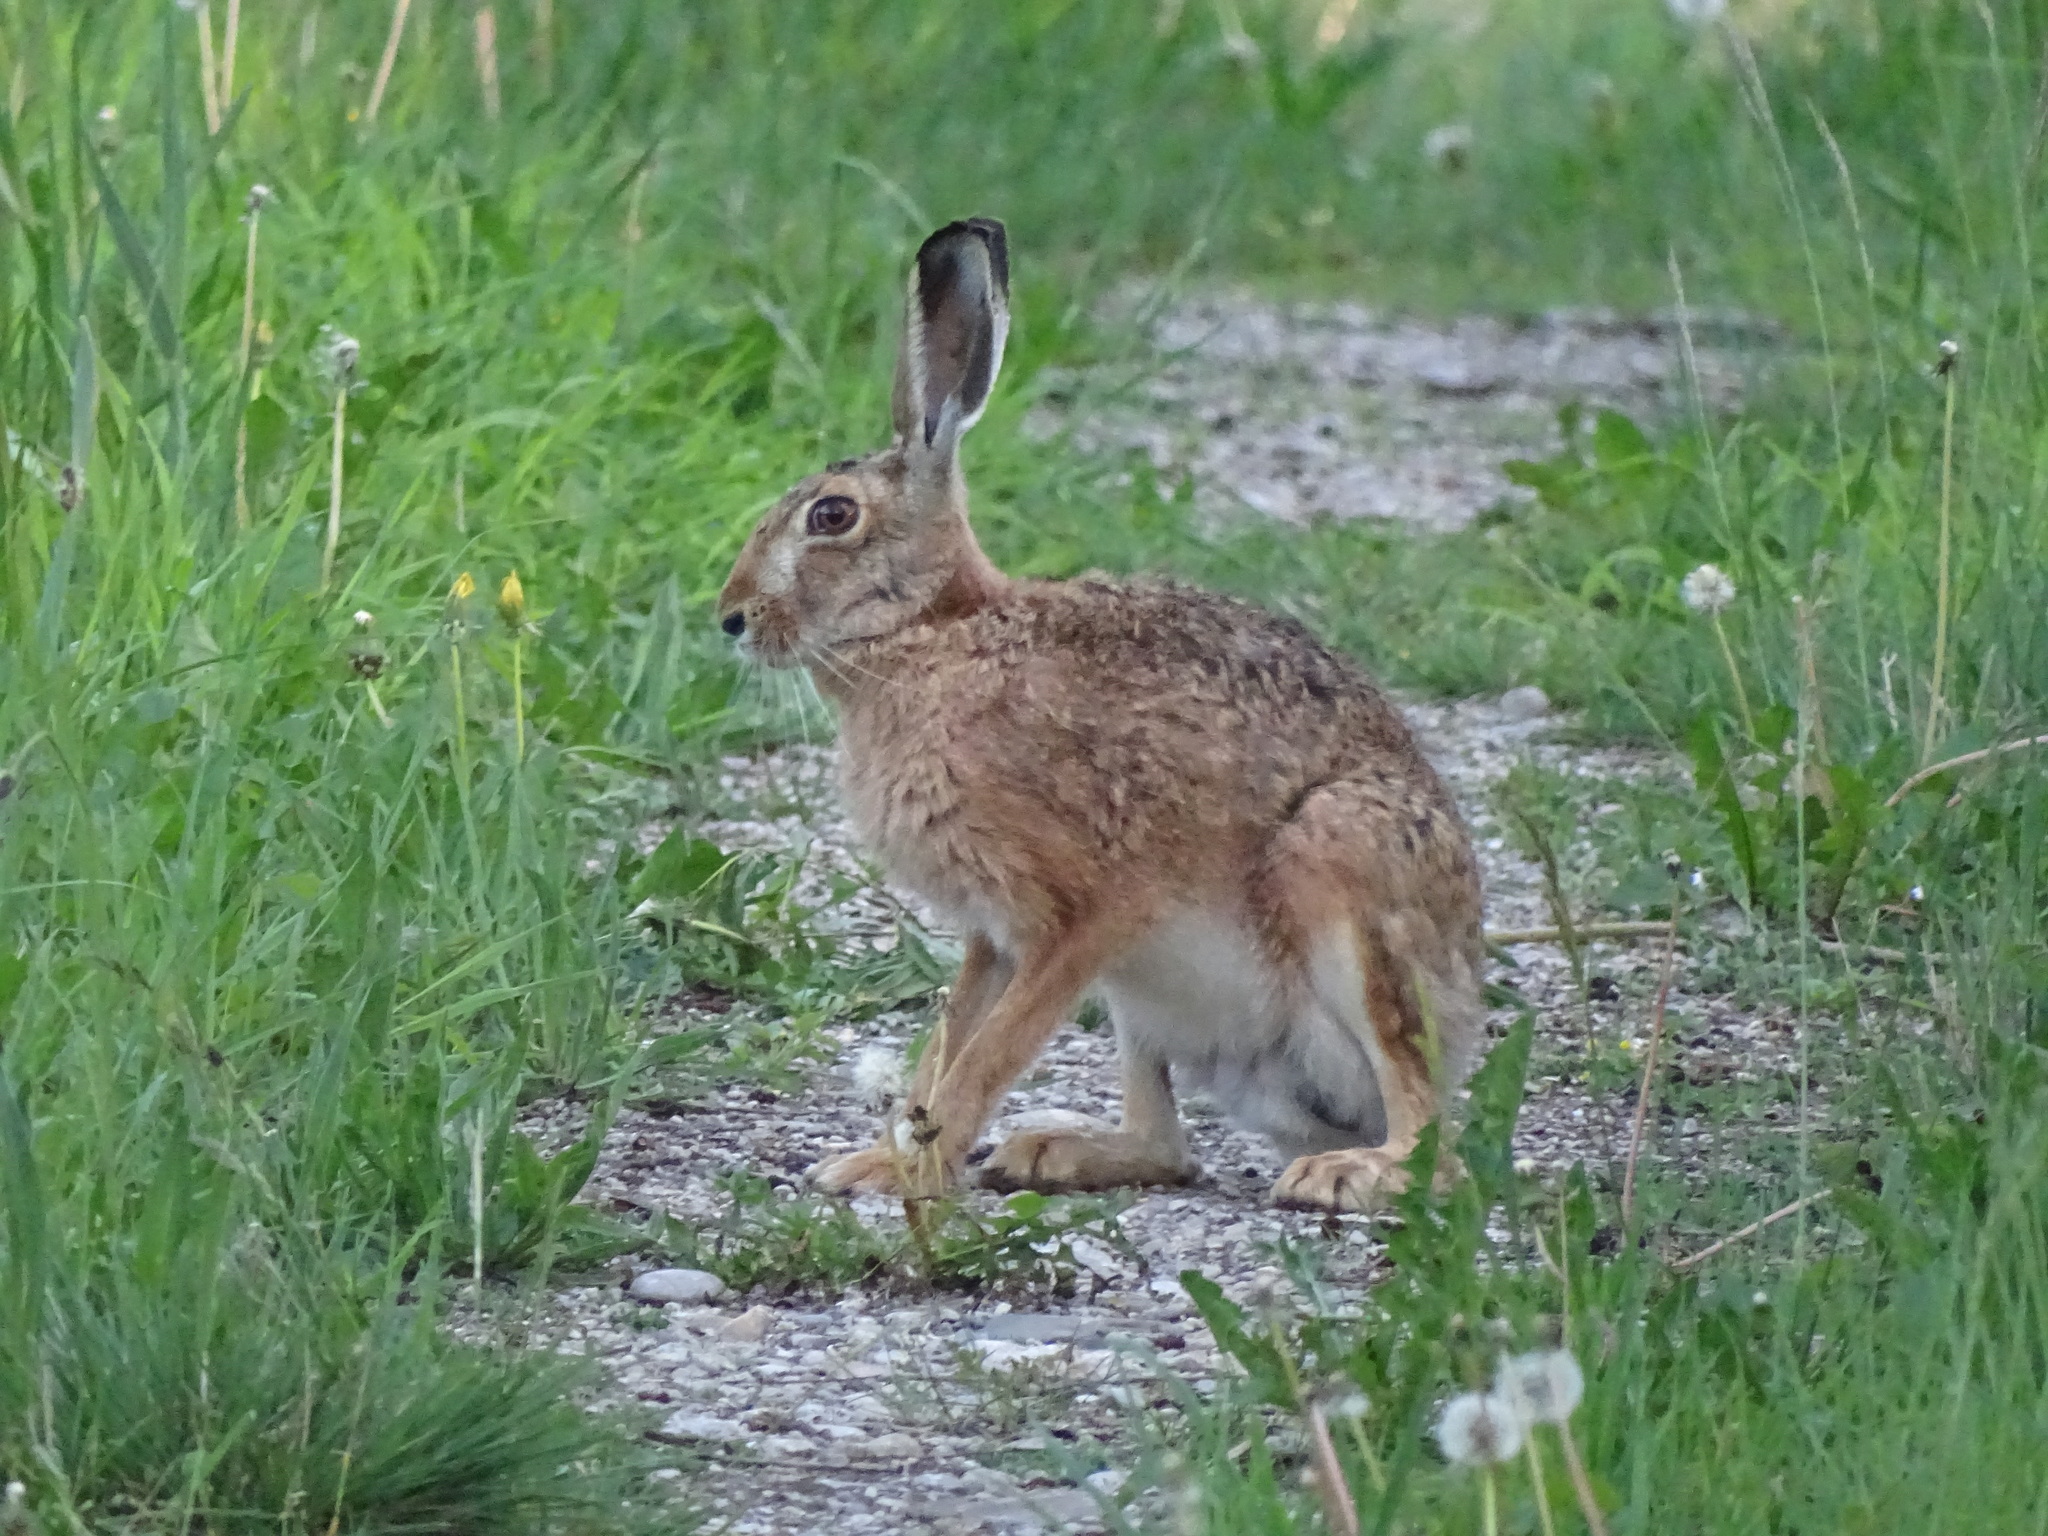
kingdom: Animalia
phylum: Chordata
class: Mammalia
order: Lagomorpha
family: Leporidae
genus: Lepus
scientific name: Lepus europaeus
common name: European hare
